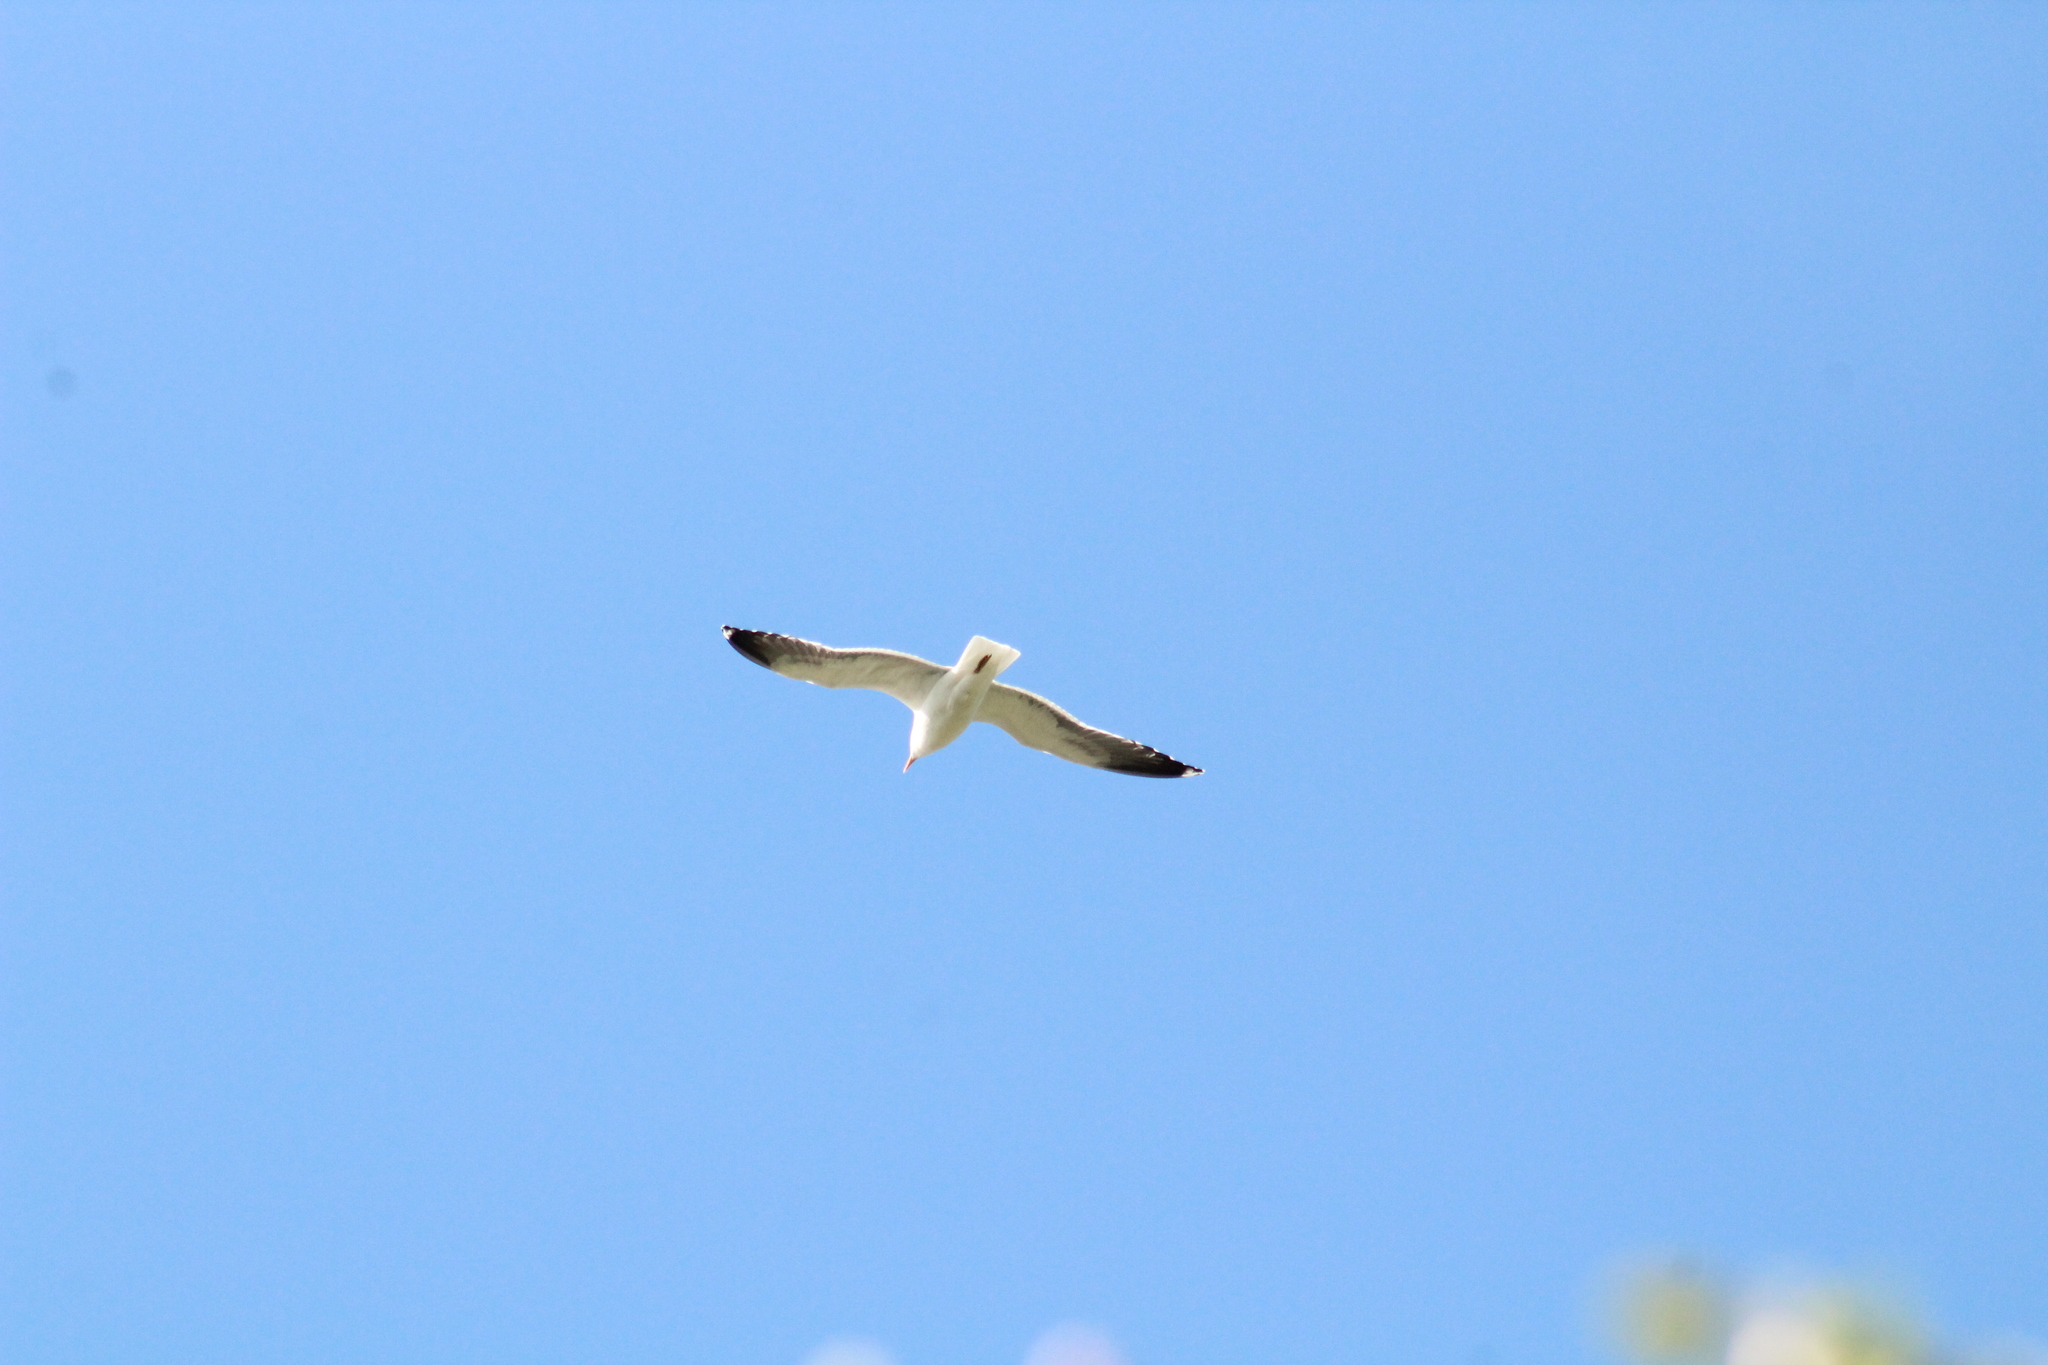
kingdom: Animalia
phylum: Chordata
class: Aves
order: Charadriiformes
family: Laridae
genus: Larus
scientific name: Larus fuscus
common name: Lesser black-backed gull
